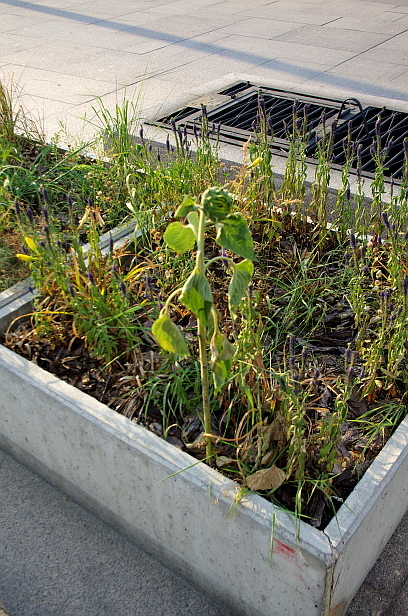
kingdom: Plantae
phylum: Tracheophyta
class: Magnoliopsida
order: Asterales
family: Asteraceae
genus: Helianthus
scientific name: Helianthus annuus
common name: Sunflower
